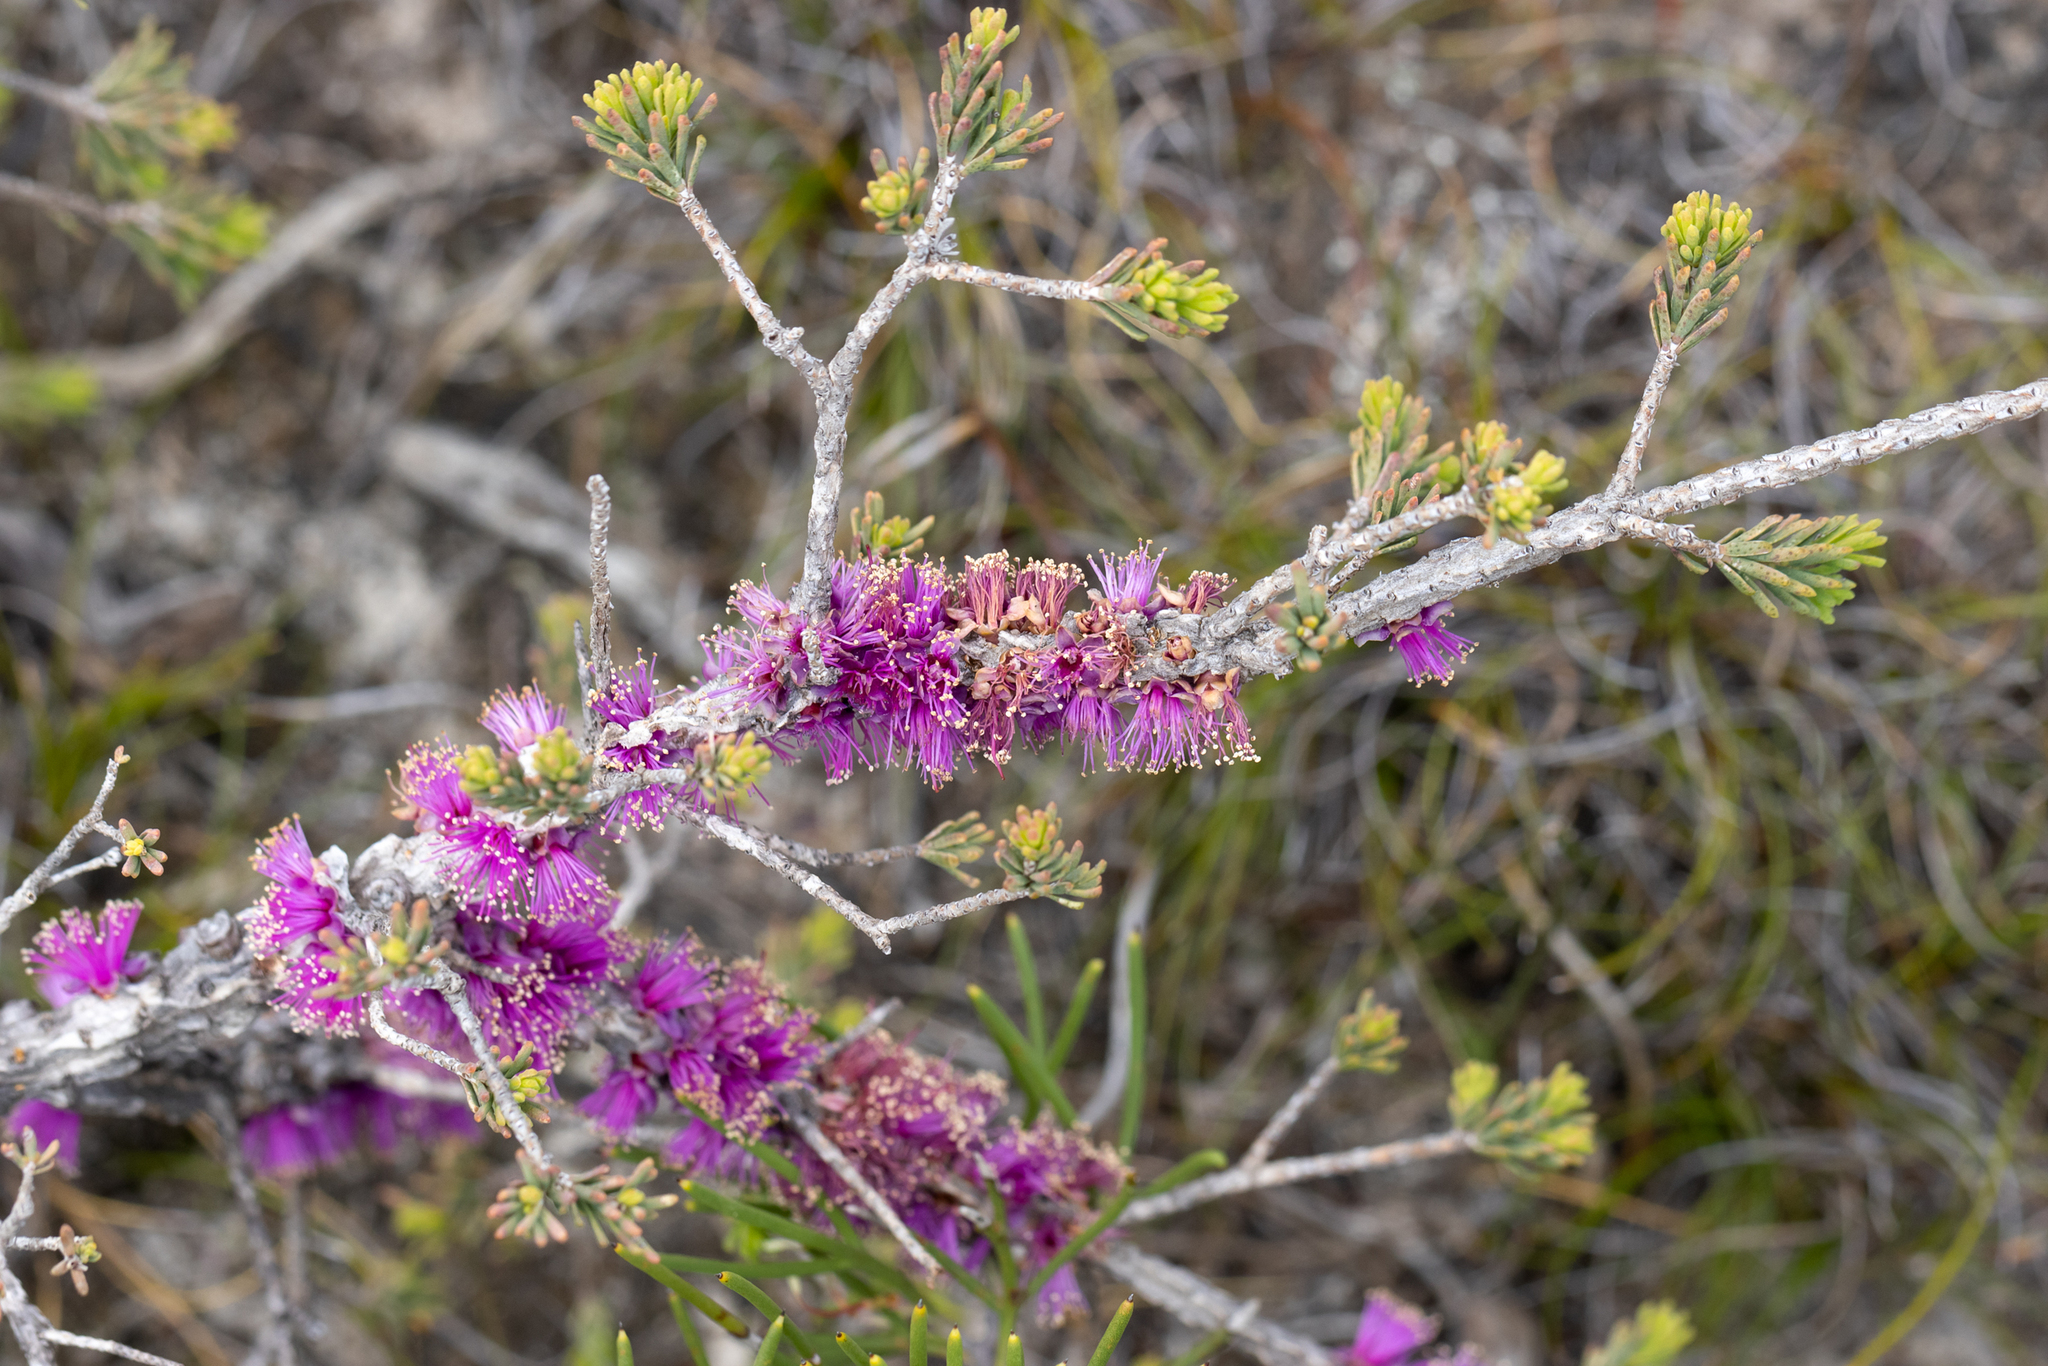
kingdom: Plantae
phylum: Tracheophyta
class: Magnoliopsida
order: Myrtales
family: Myrtaceae
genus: Melaleuca
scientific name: Melaleuca suberosa
